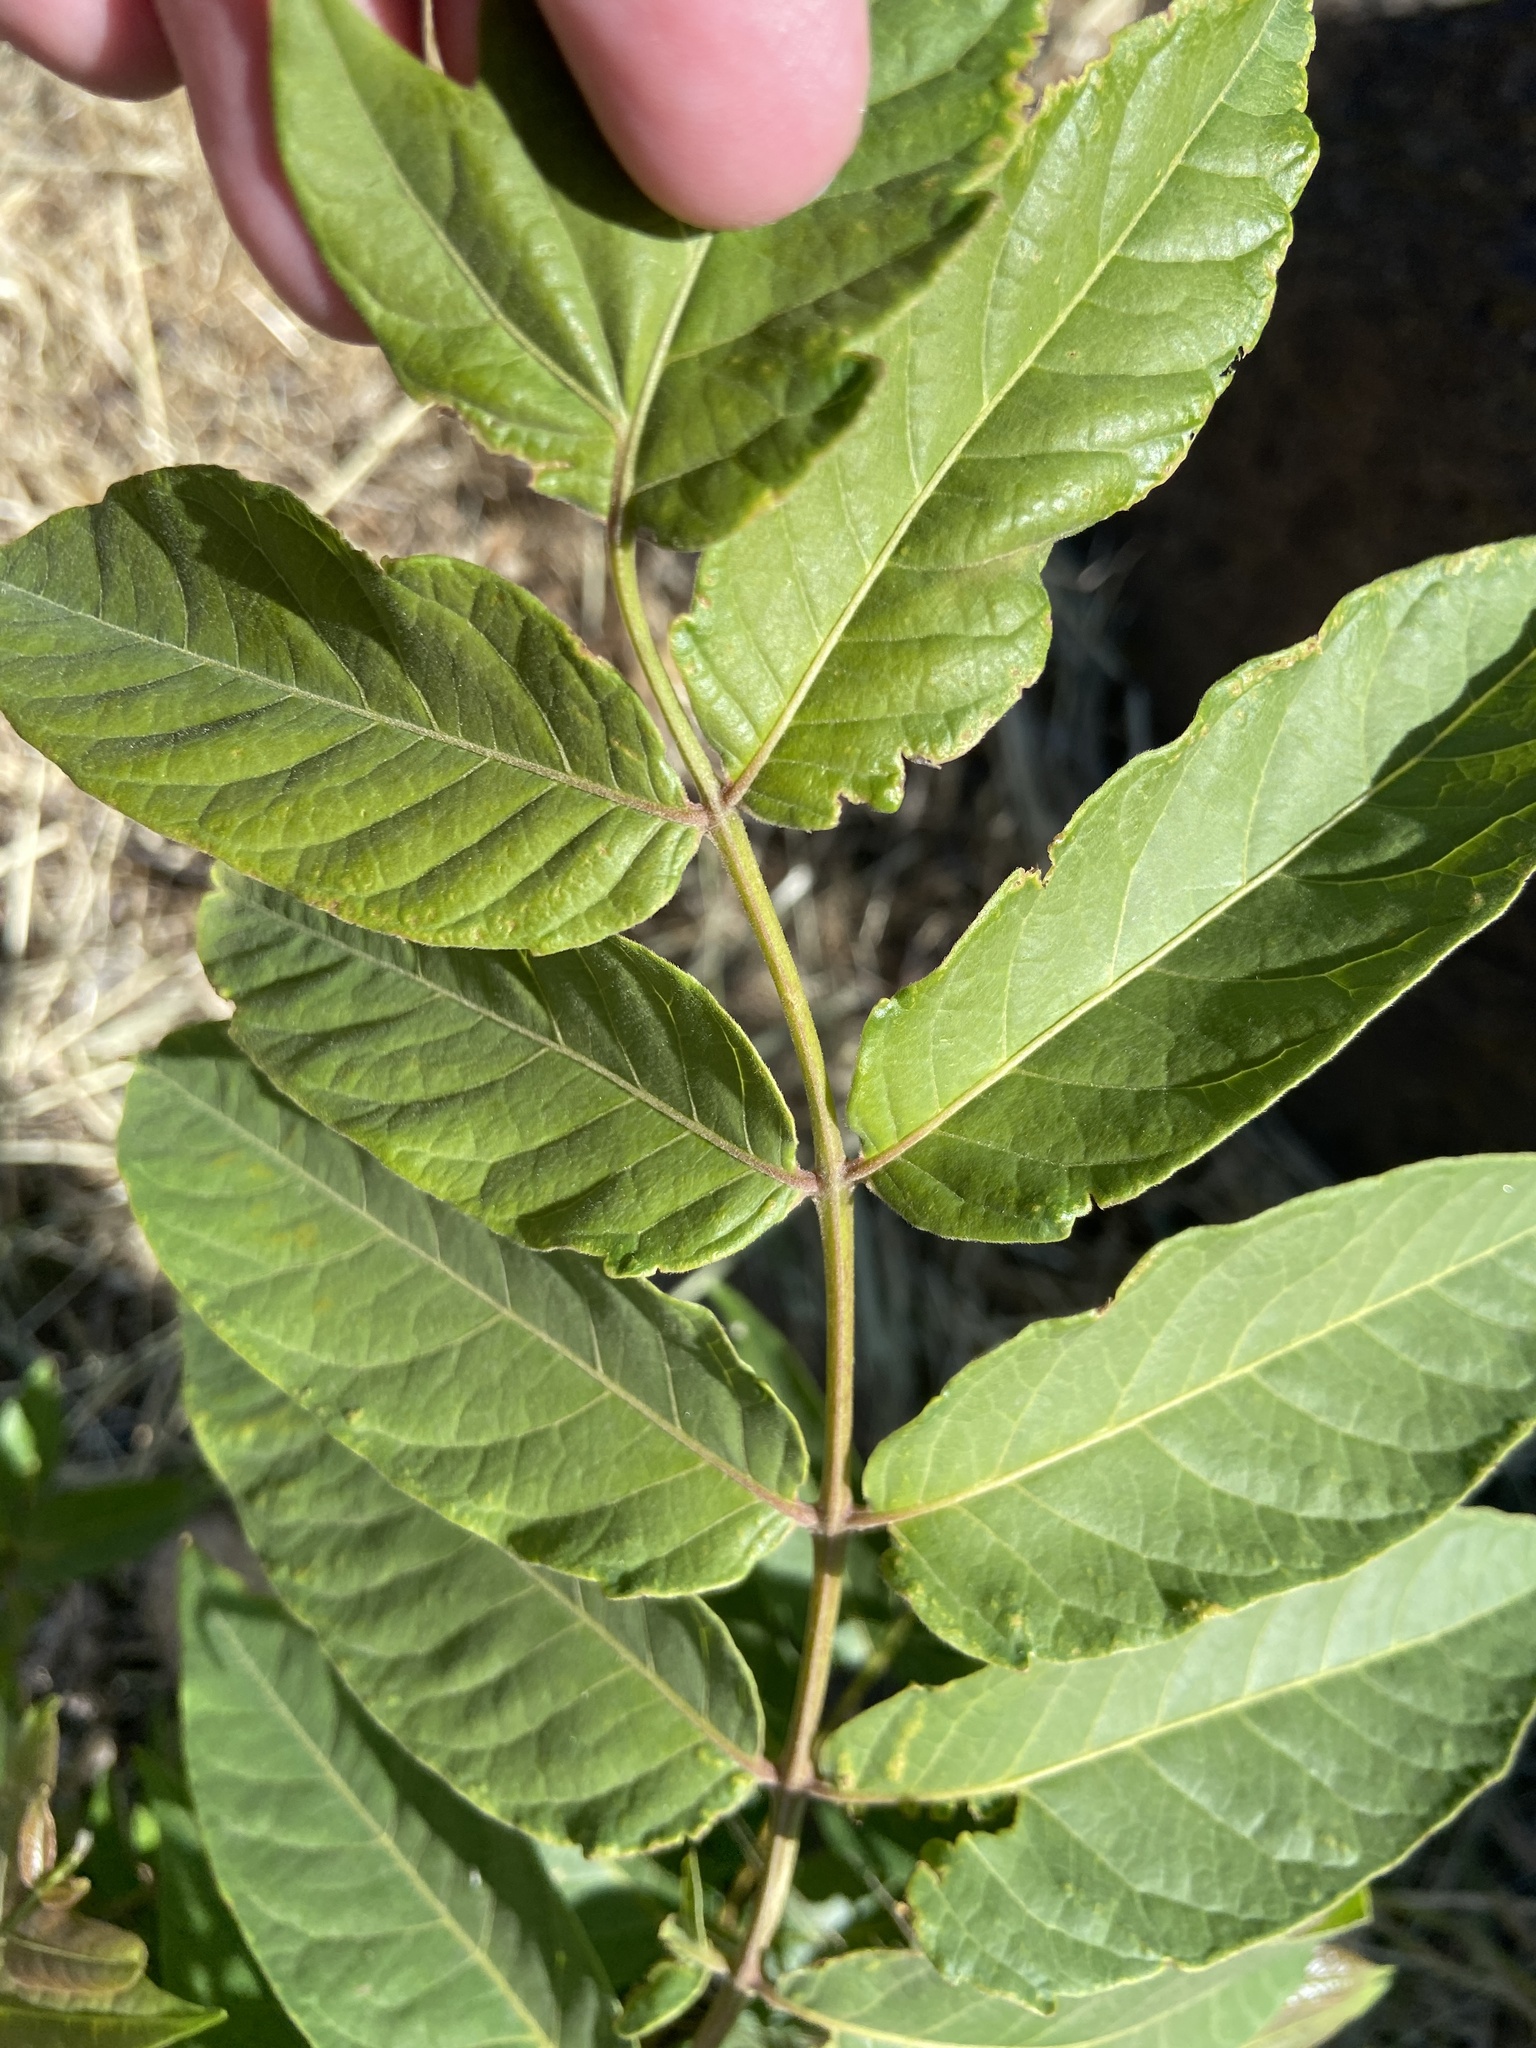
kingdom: Plantae
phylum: Tracheophyta
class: Magnoliopsida
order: Sapindales
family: Simaroubaceae
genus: Ailanthus
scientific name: Ailanthus altissima
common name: Tree-of-heaven
